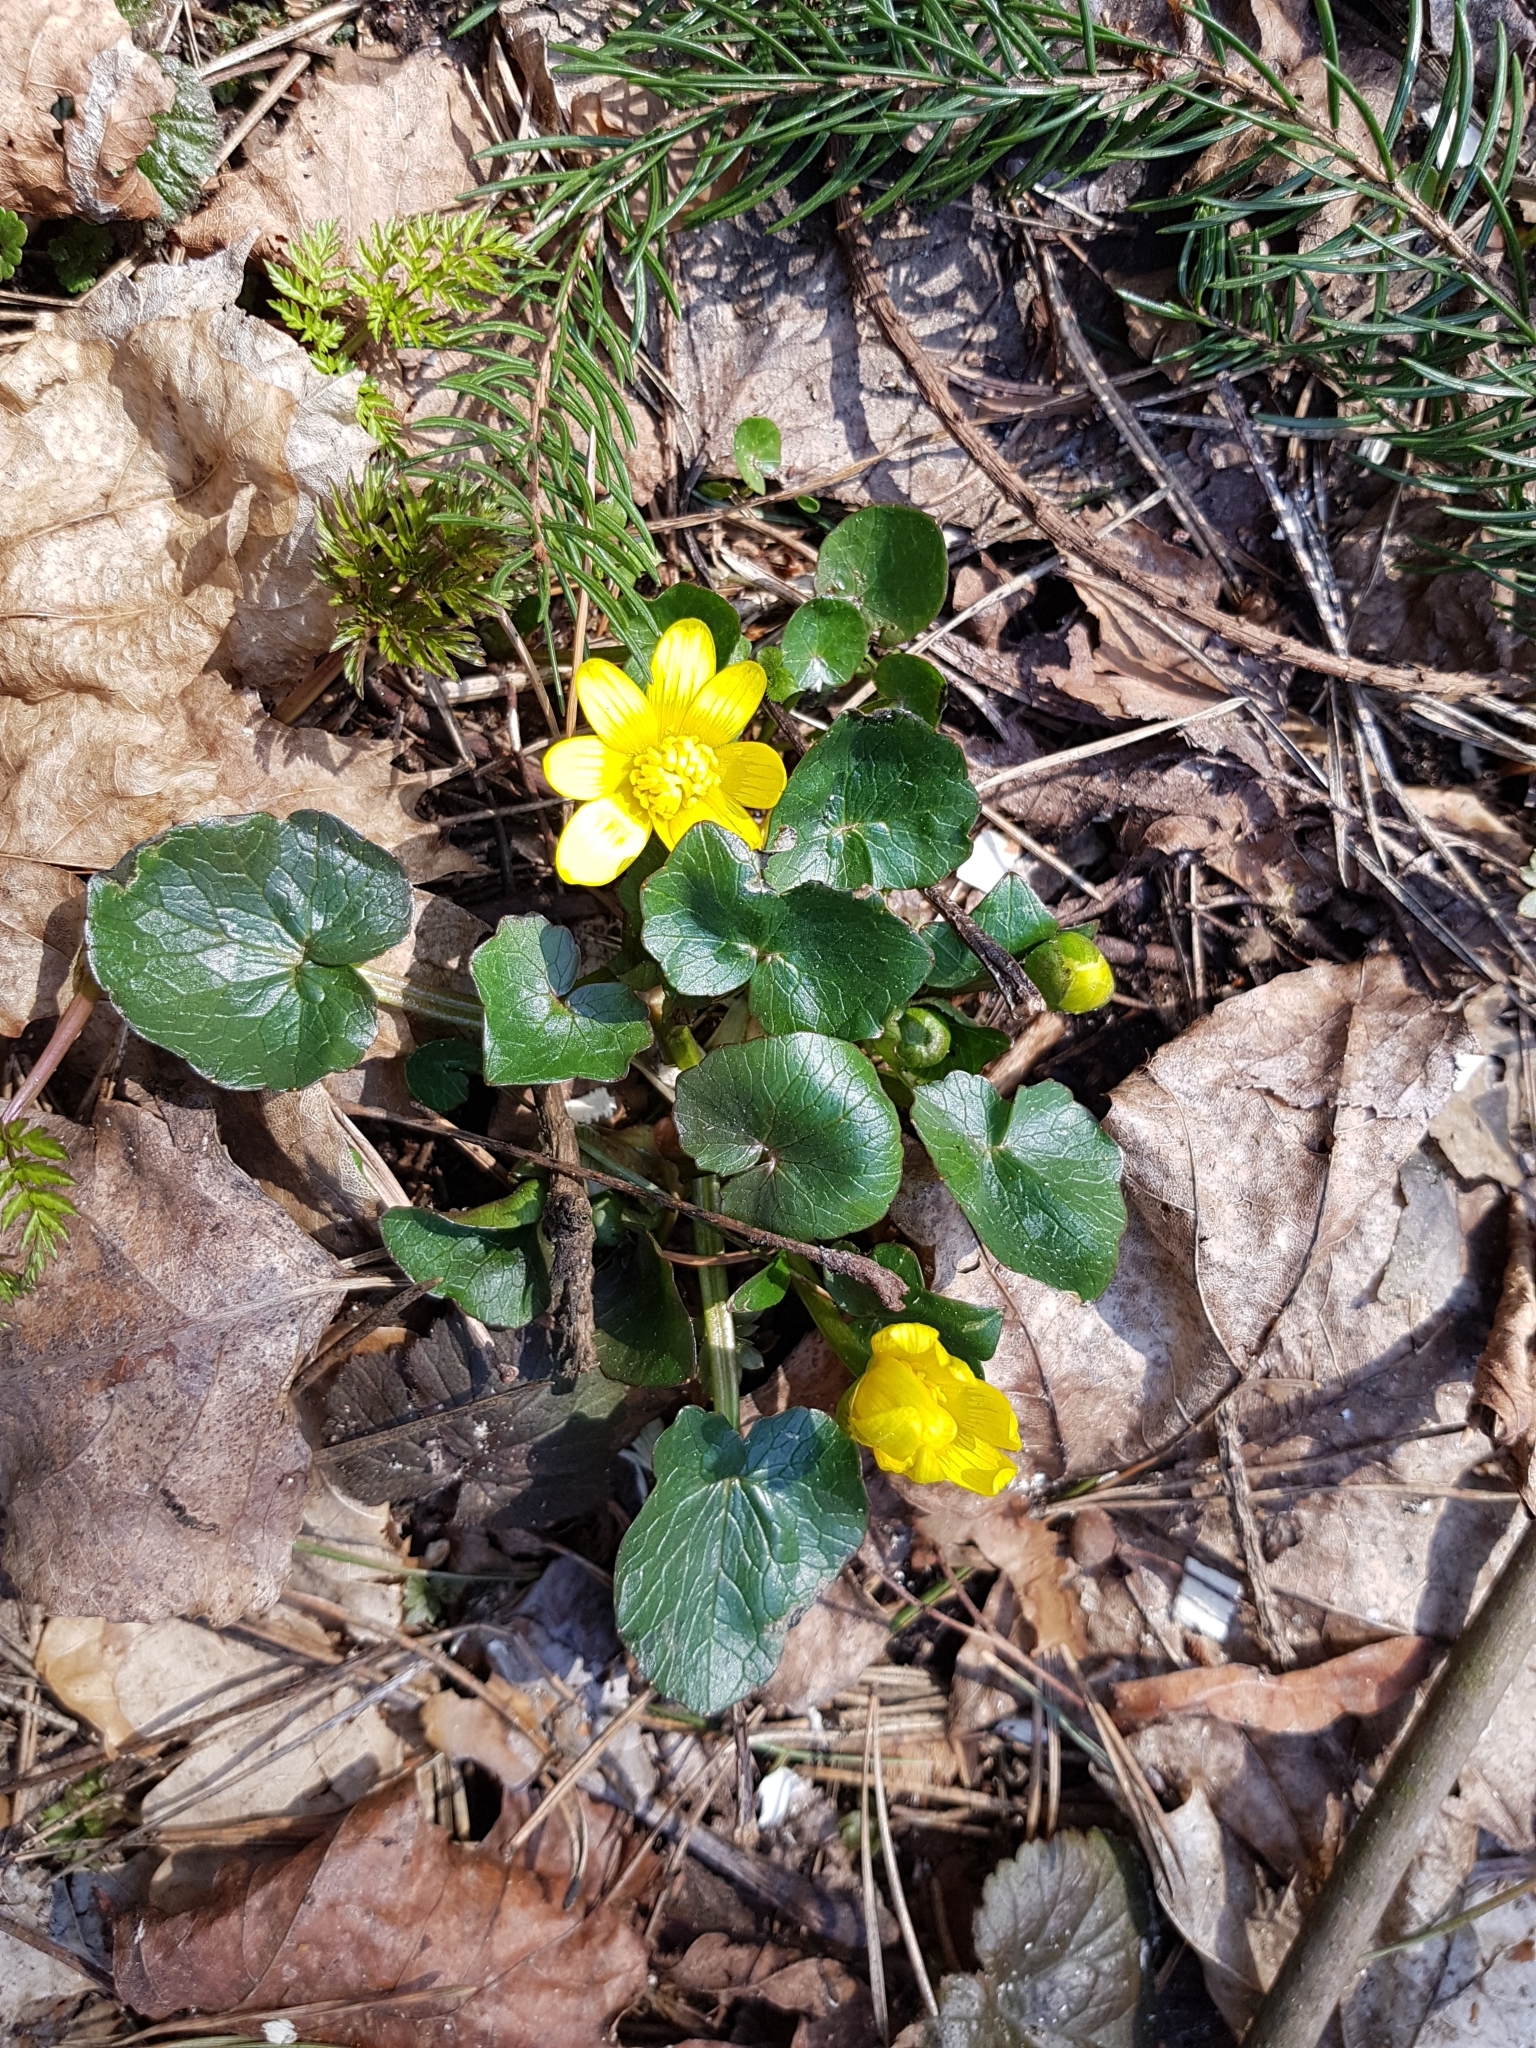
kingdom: Plantae
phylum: Tracheophyta
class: Magnoliopsida
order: Ranunculales
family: Ranunculaceae
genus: Ficaria
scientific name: Ficaria verna
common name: Lesser celandine
